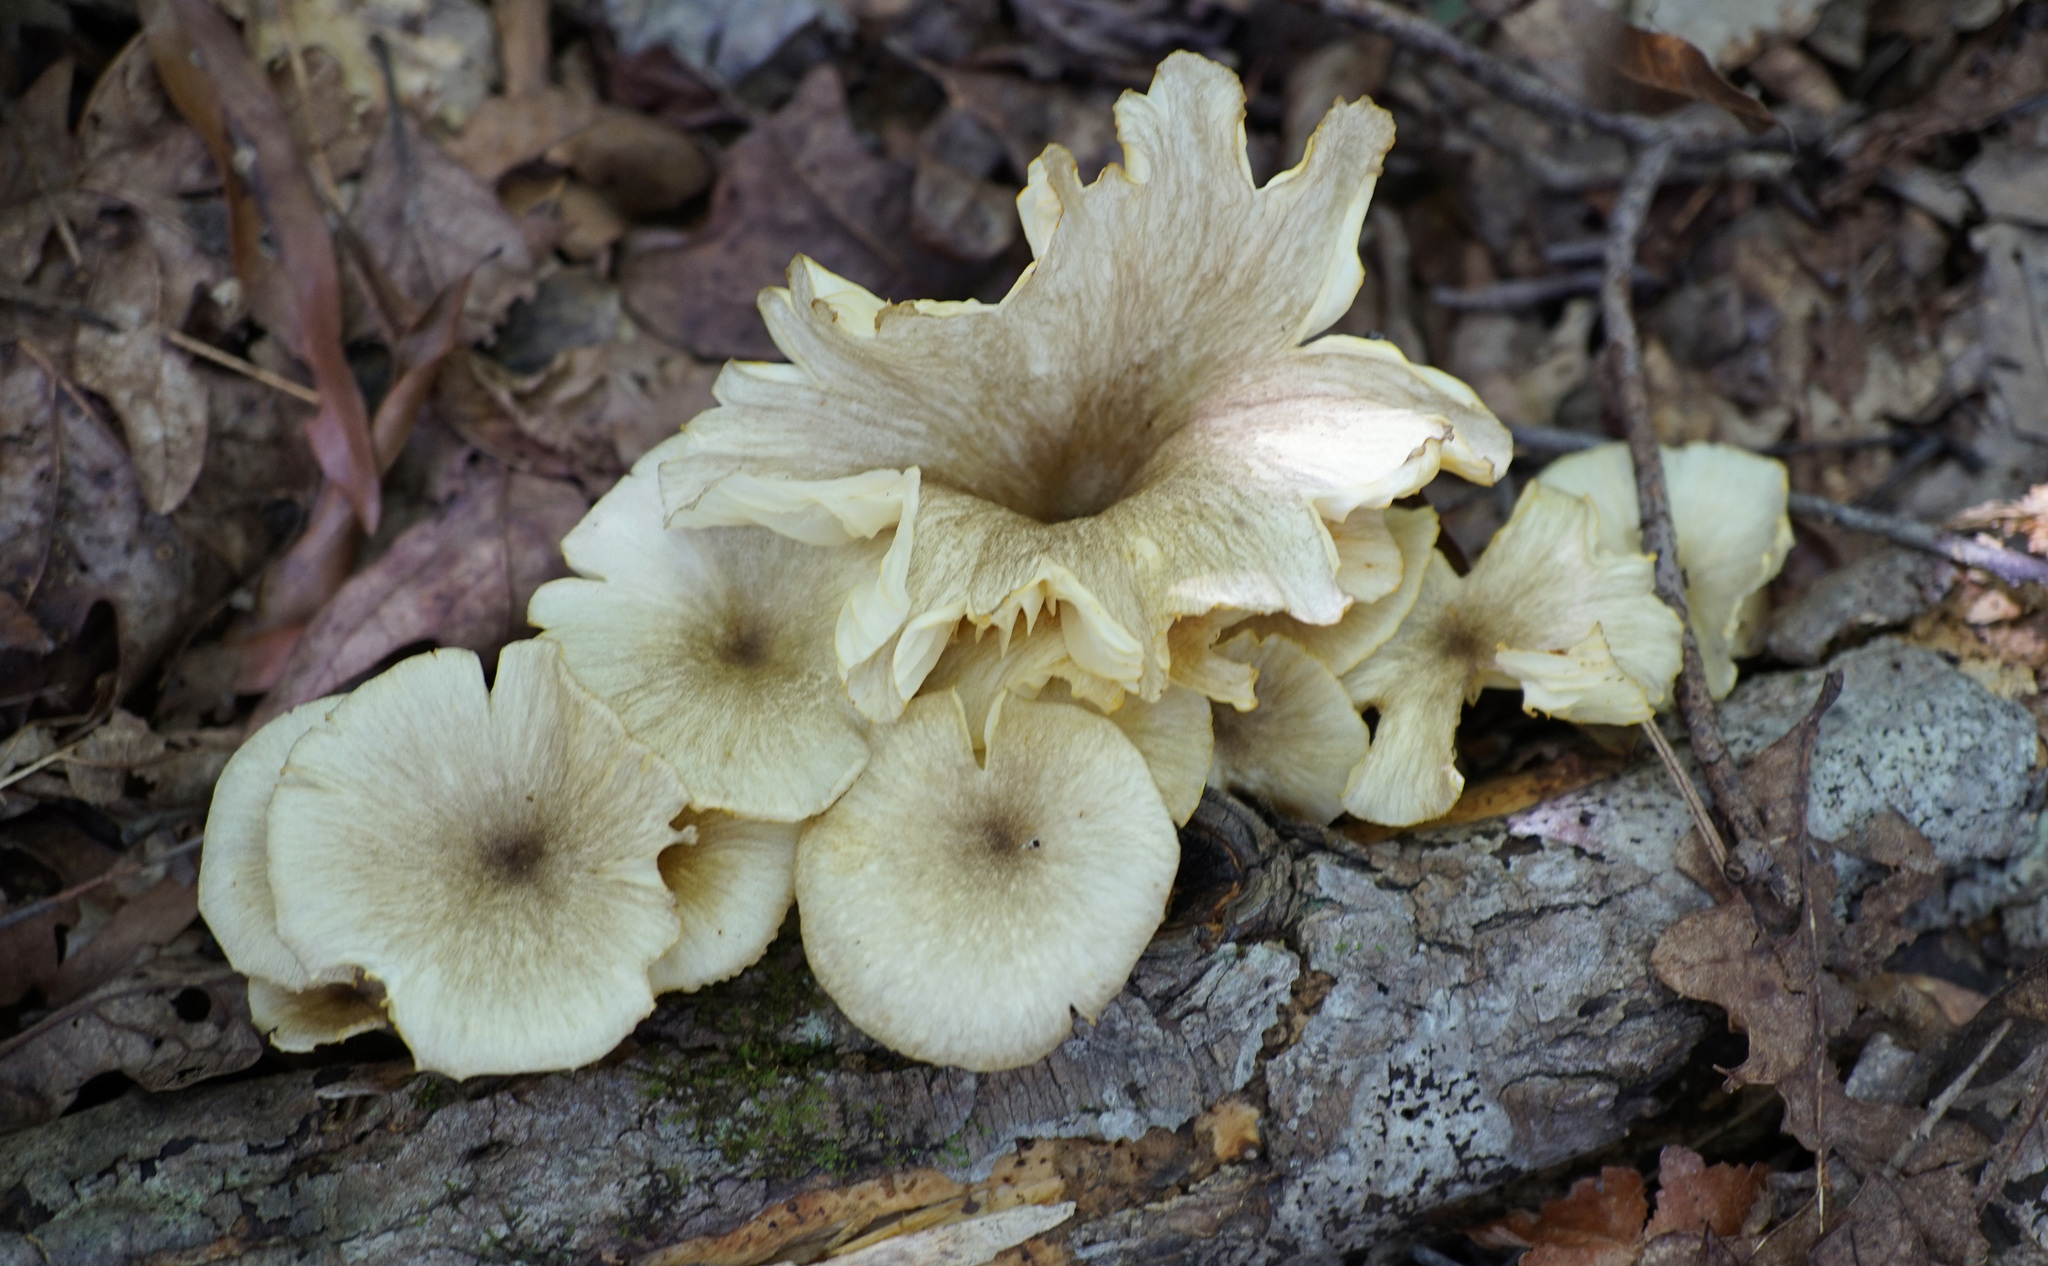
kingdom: Fungi
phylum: Basidiomycota
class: Agaricomycetes
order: Agaricales
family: Marasmiaceae
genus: Gerronema
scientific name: Gerronema strombodes
